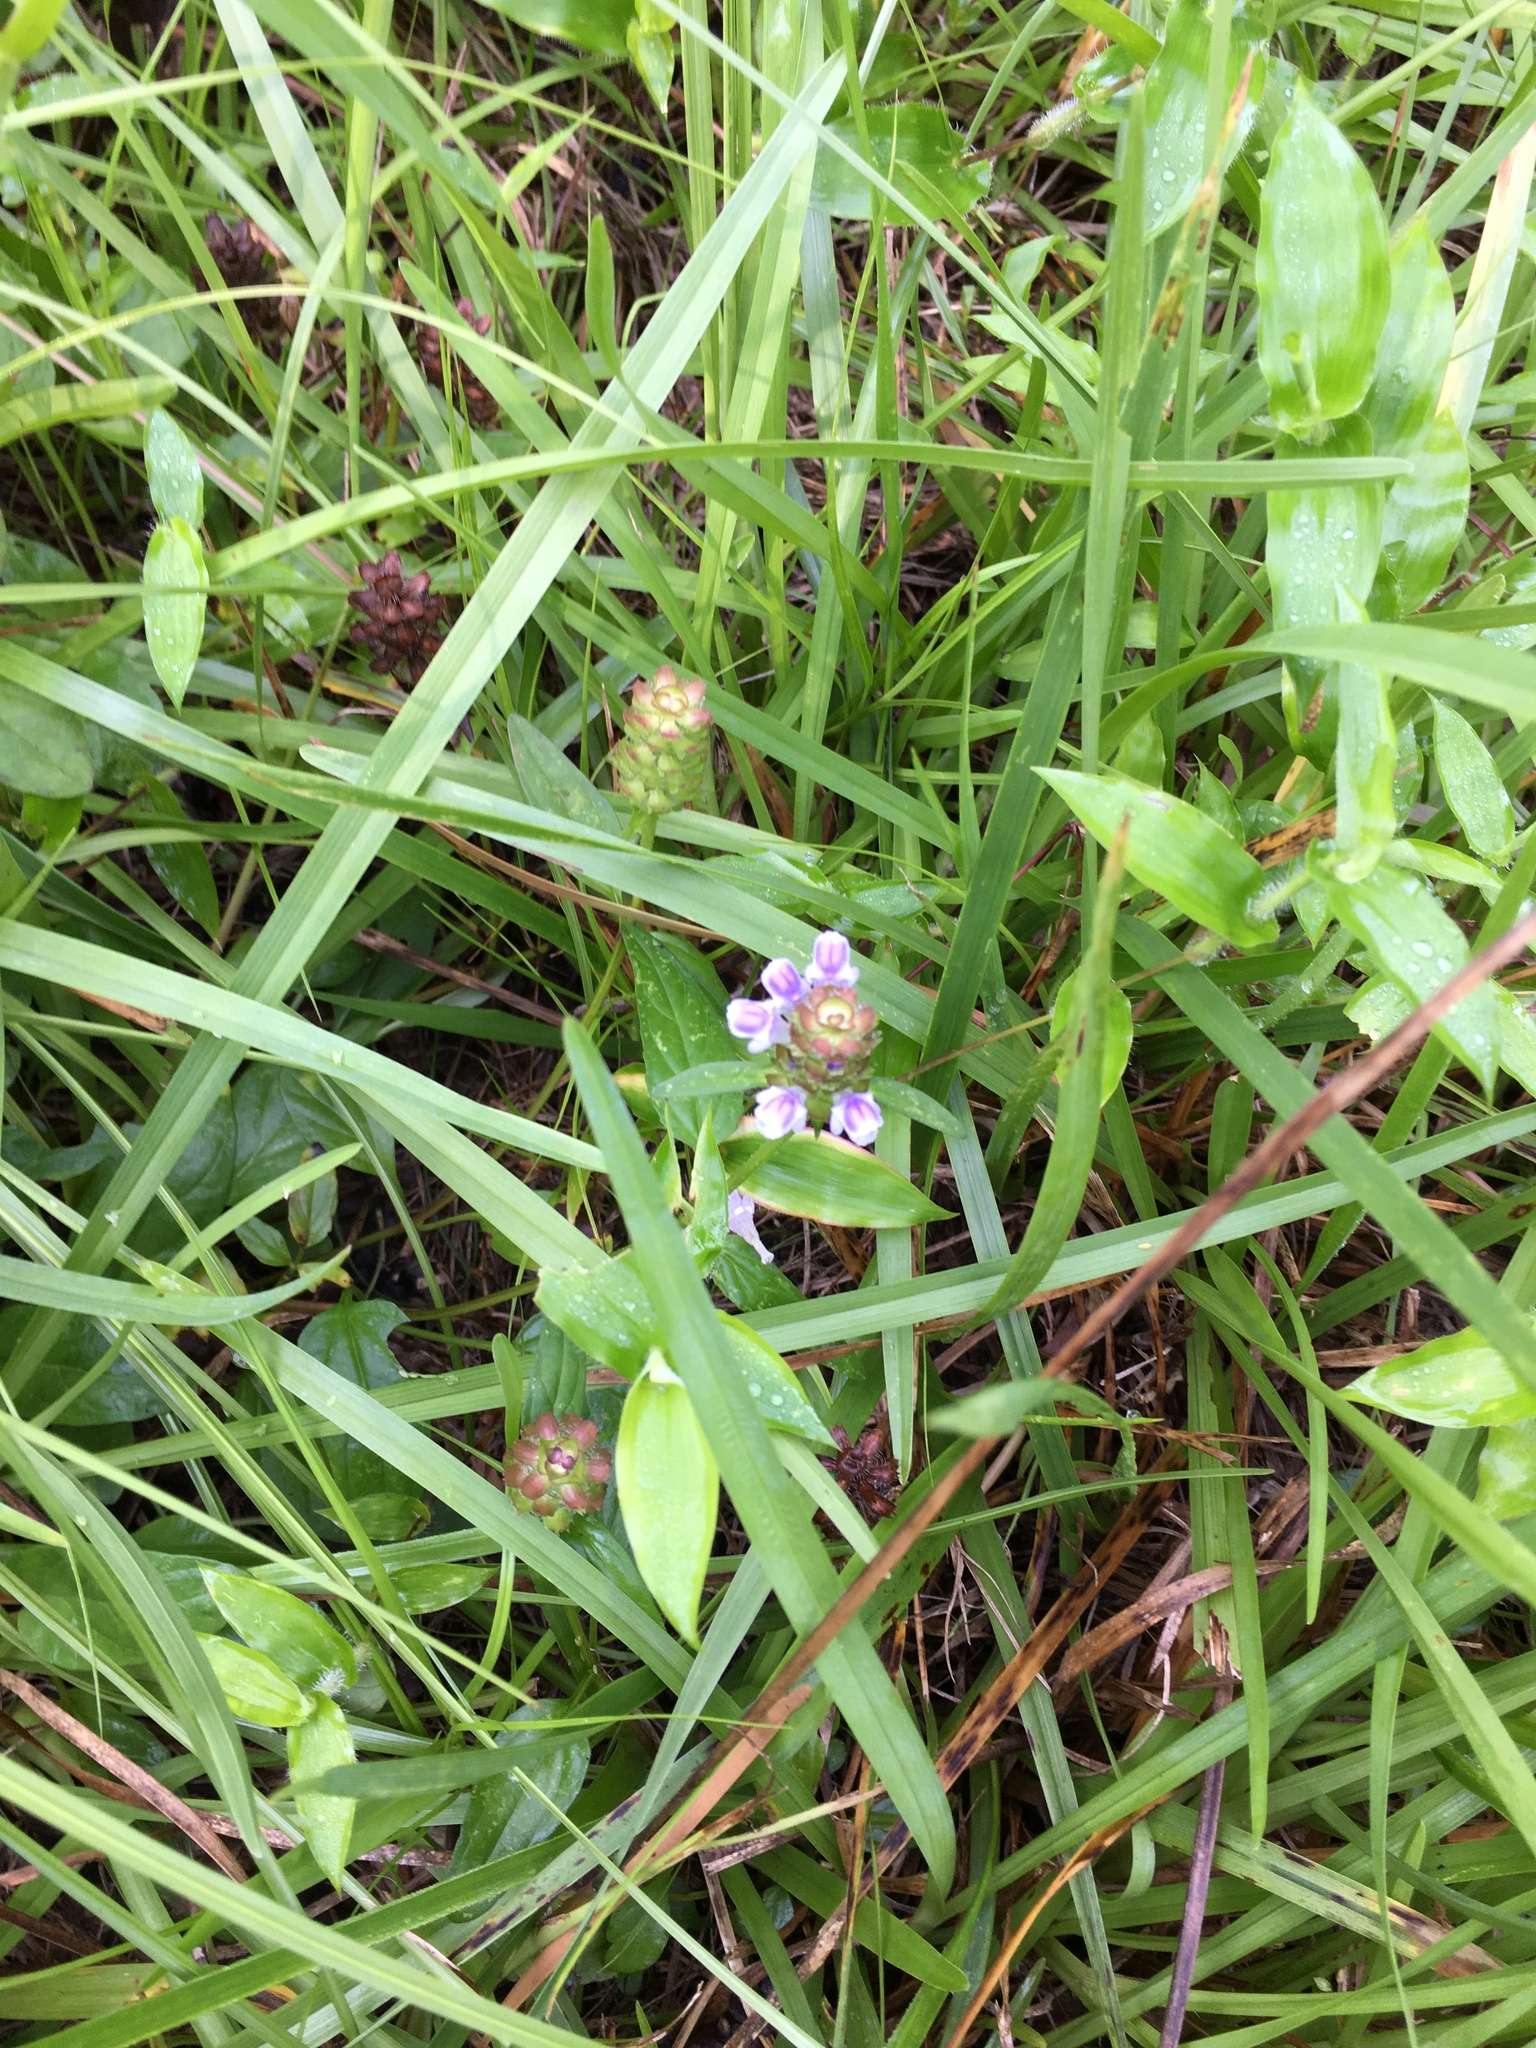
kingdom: Plantae
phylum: Tracheophyta
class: Magnoliopsida
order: Lamiales
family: Lamiaceae
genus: Prunella
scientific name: Prunella vulgaris
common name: Heal-all
